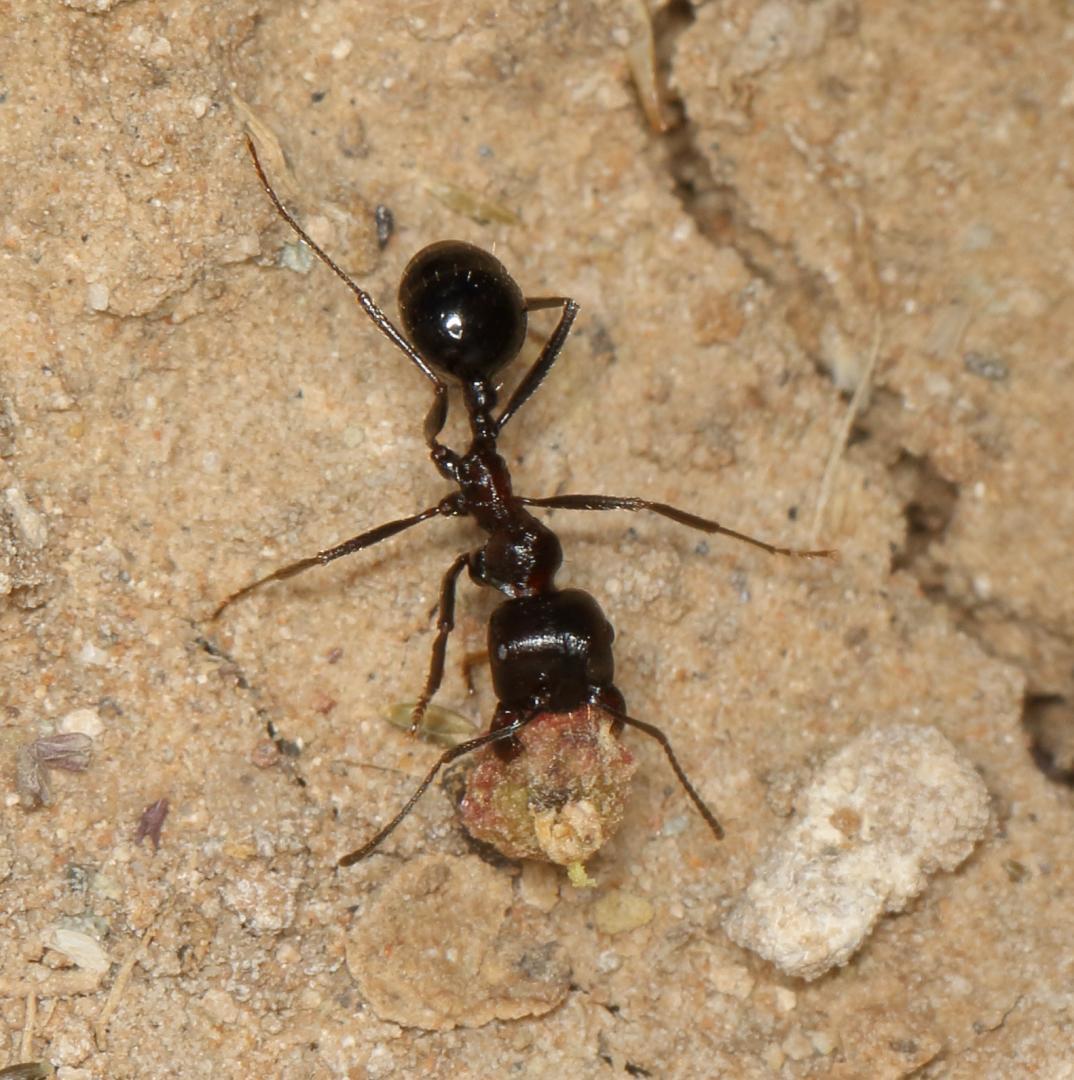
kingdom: Animalia
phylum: Arthropoda
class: Insecta
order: Hymenoptera
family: Formicidae
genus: Messor
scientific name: Messor capensis
